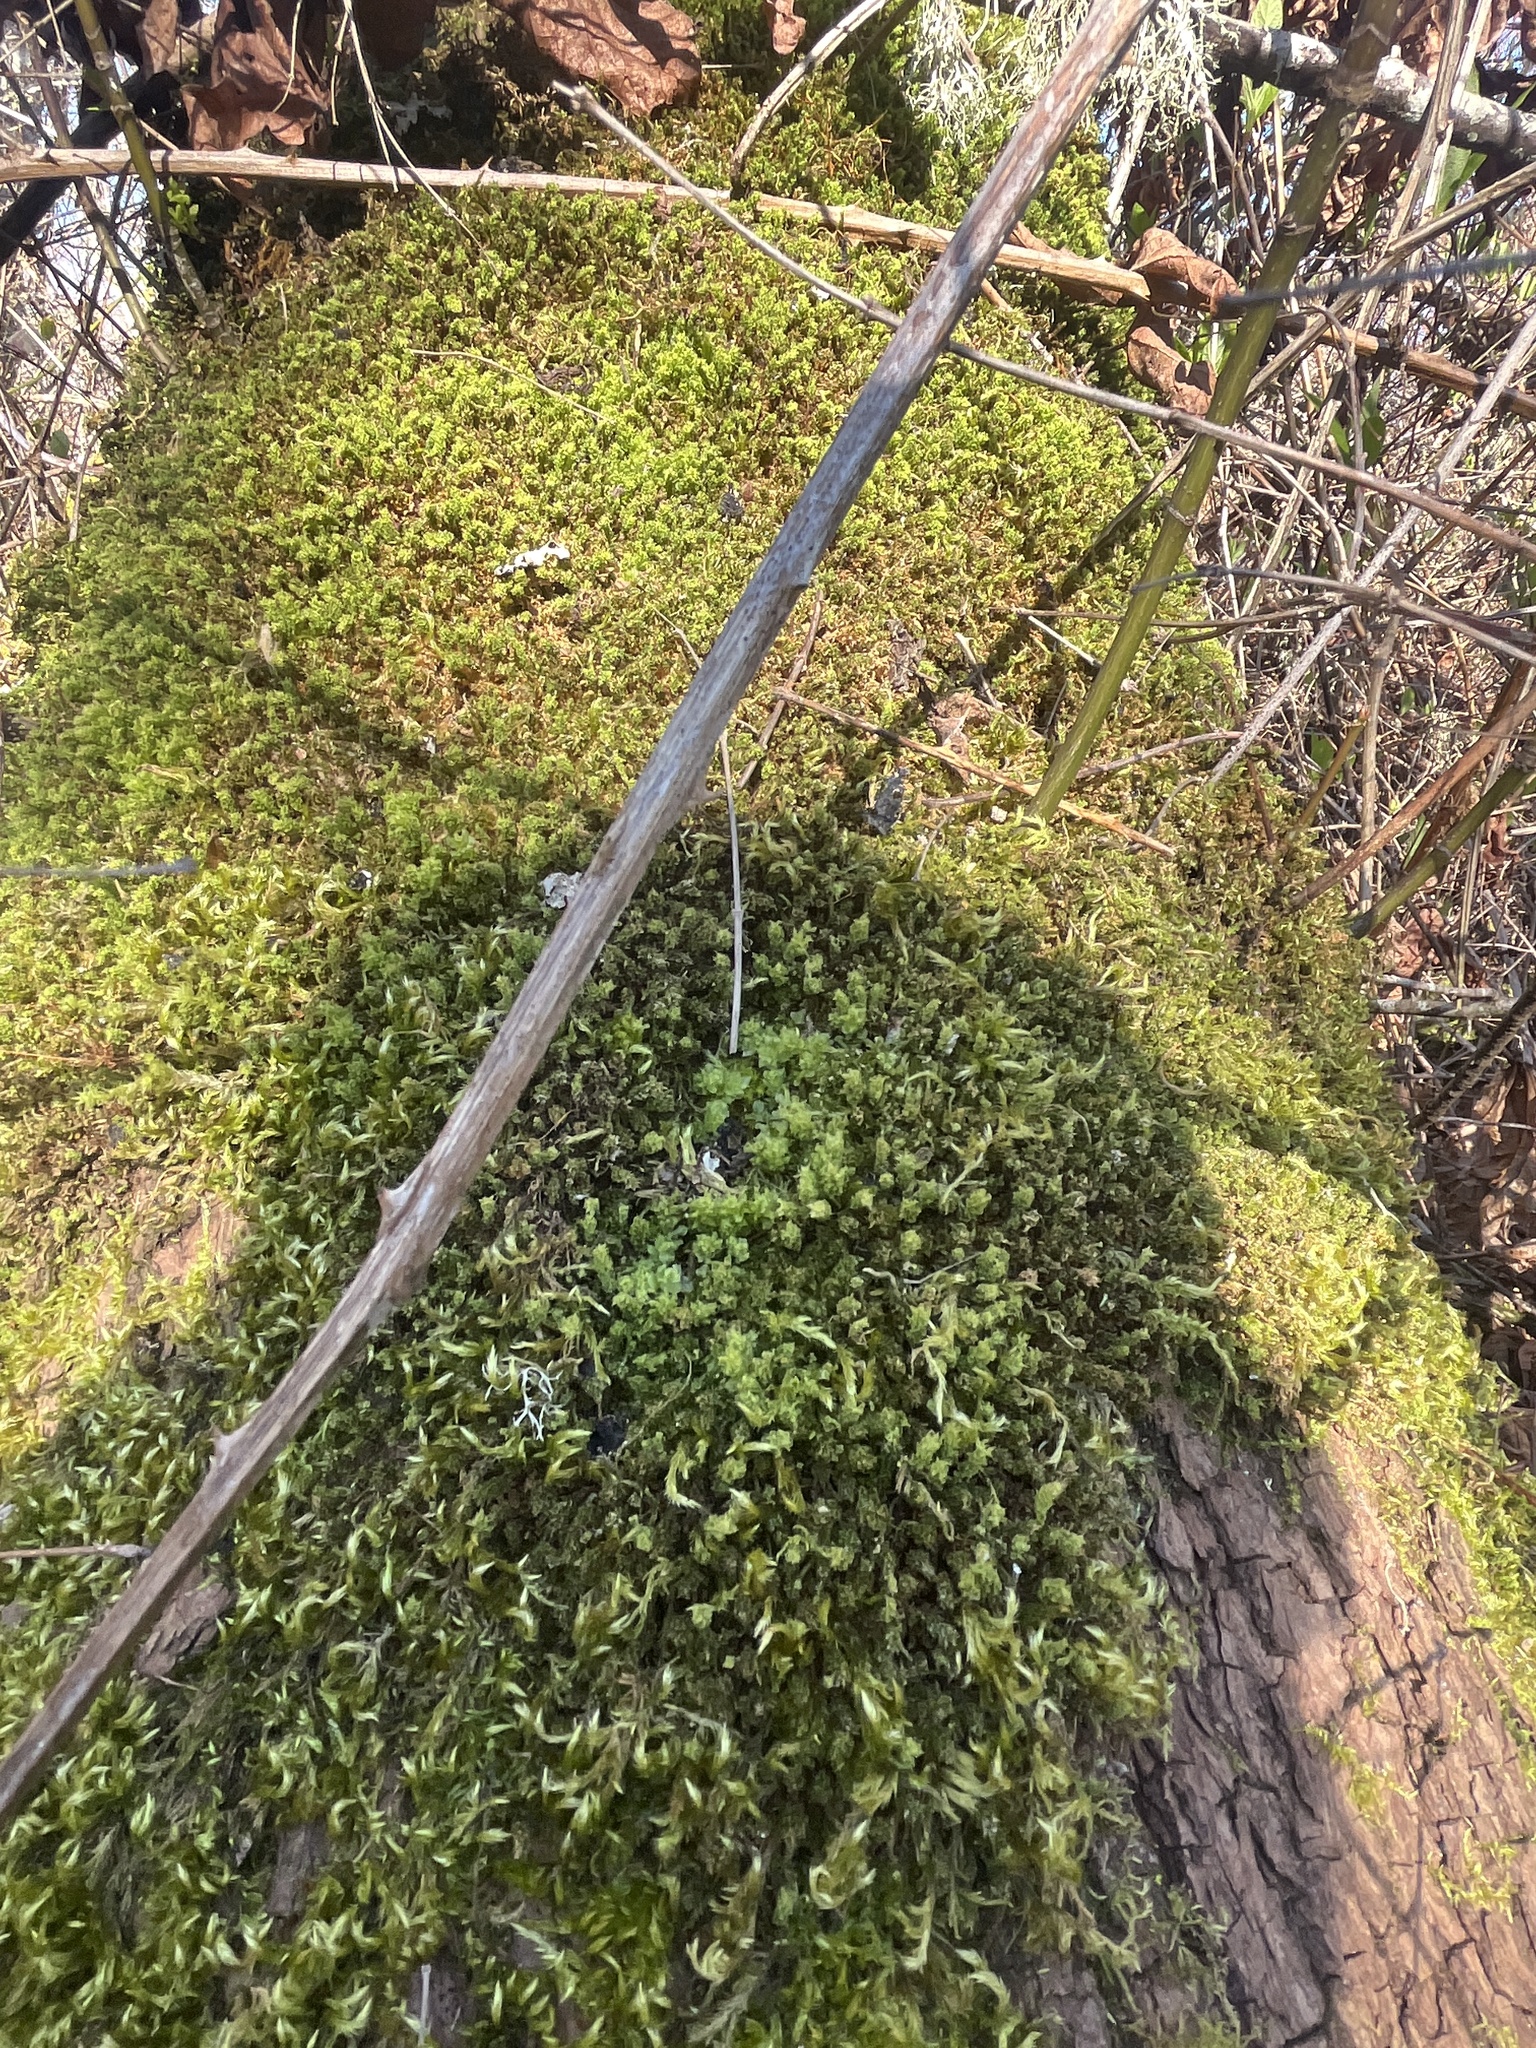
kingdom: Plantae
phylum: Bryophyta
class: Bryopsida
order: Bryales
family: Mniaceae
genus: Plagiomnium
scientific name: Plagiomnium venustum
